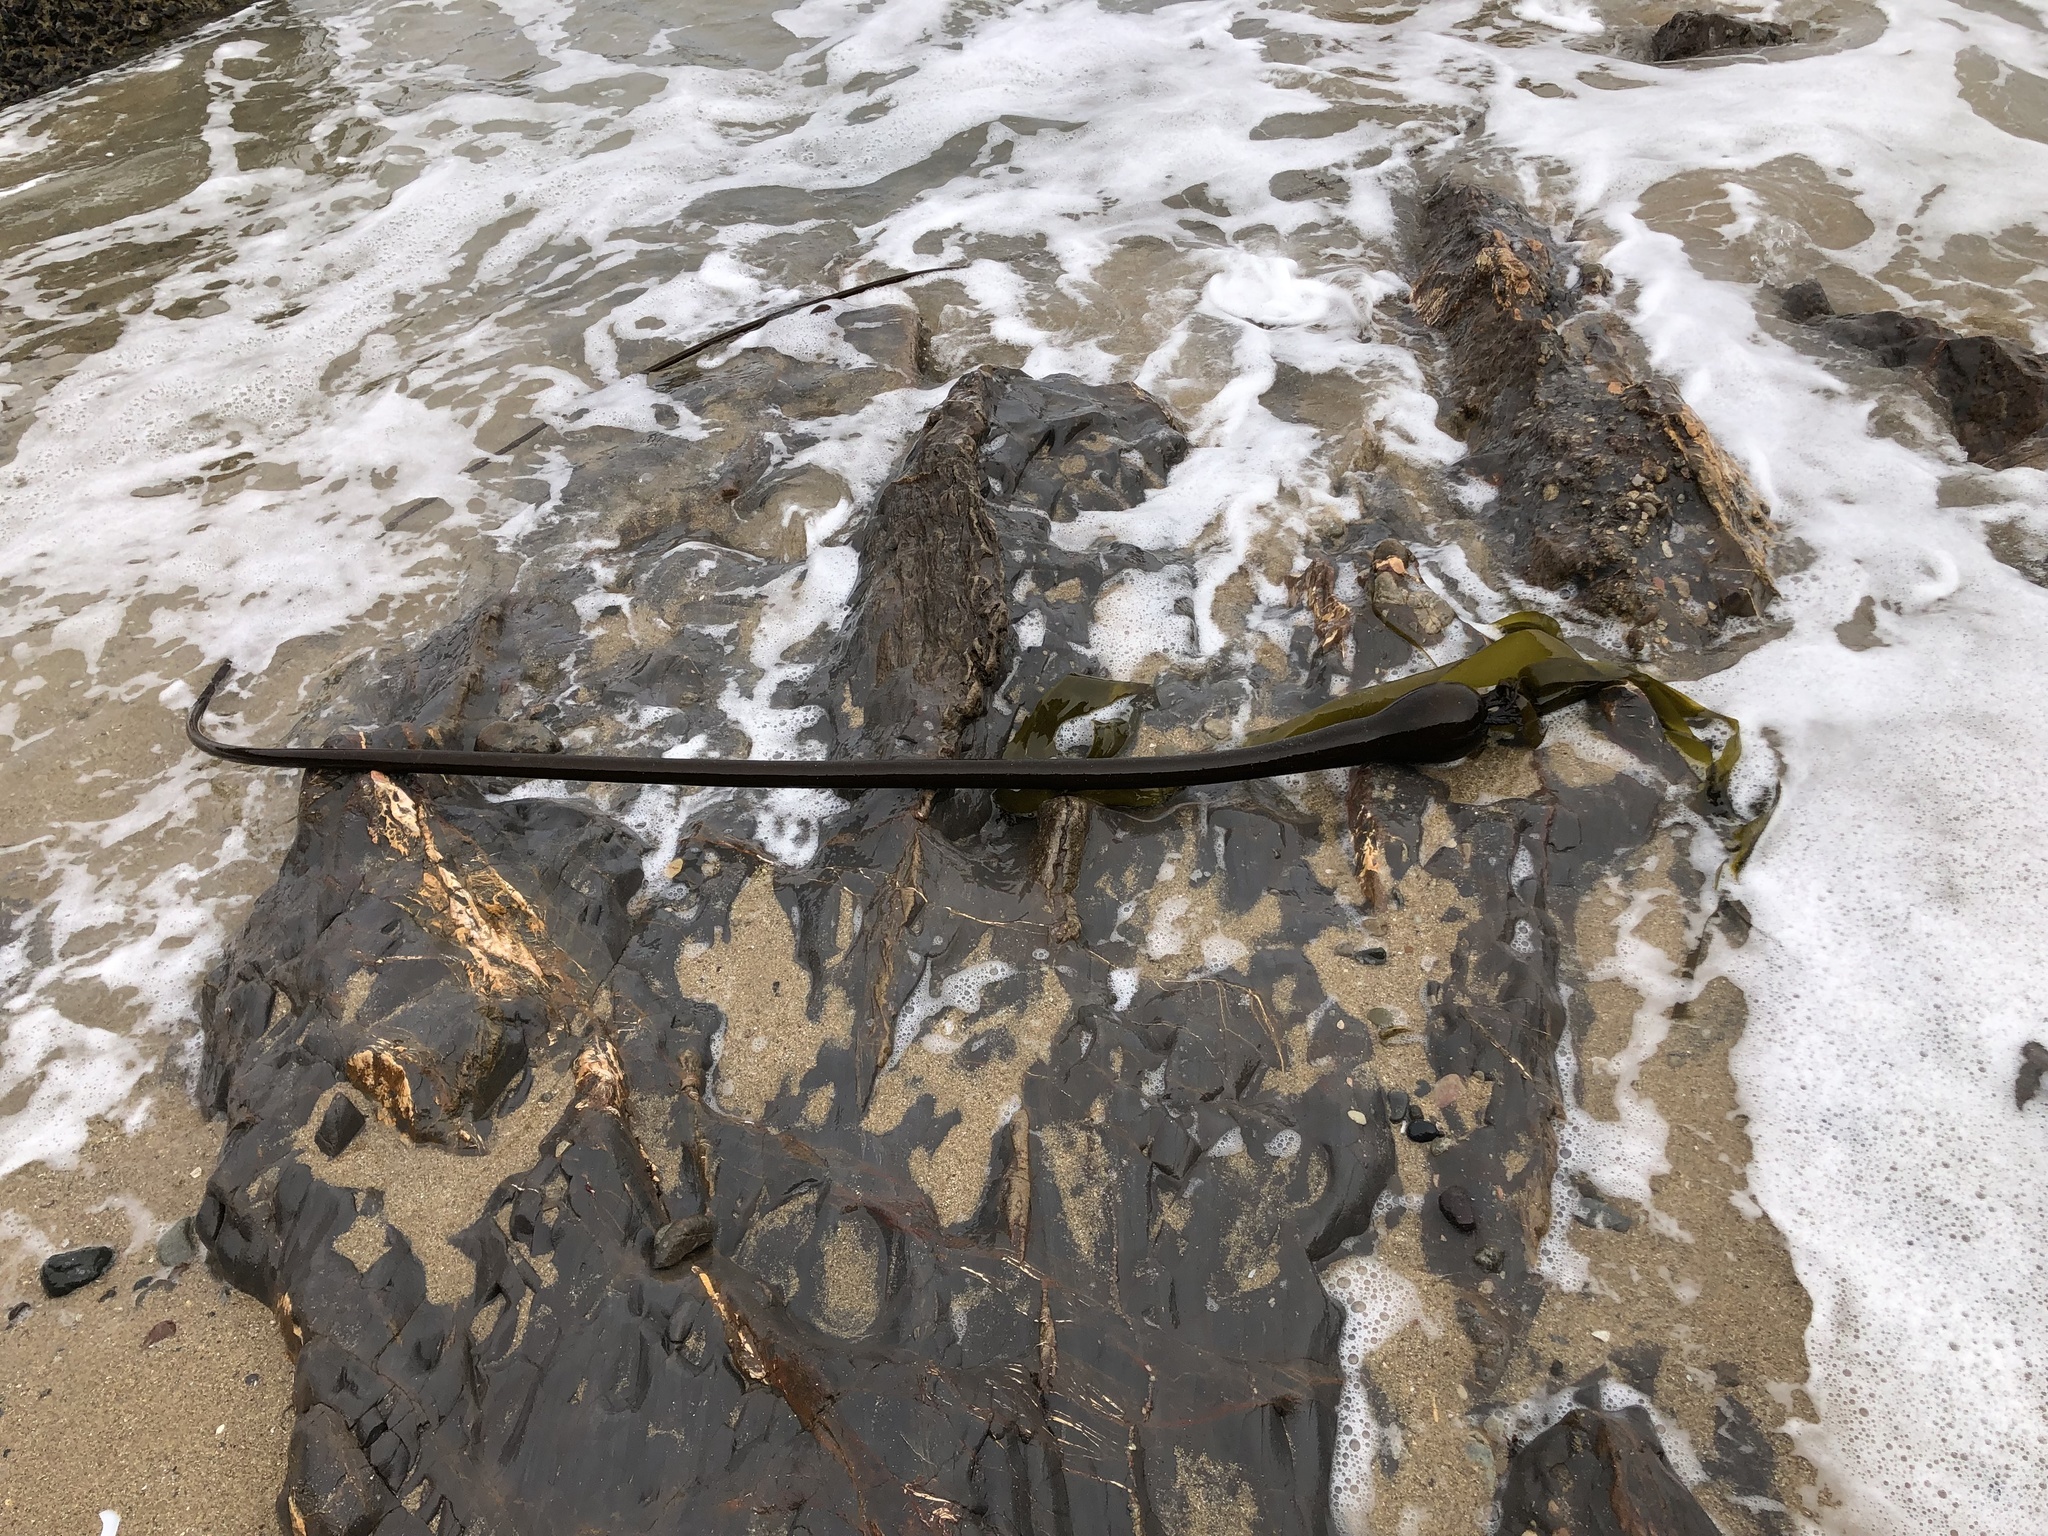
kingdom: Chromista
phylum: Ochrophyta
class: Phaeophyceae
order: Laminariales
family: Laminariaceae
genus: Nereocystis
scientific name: Nereocystis luetkeana
